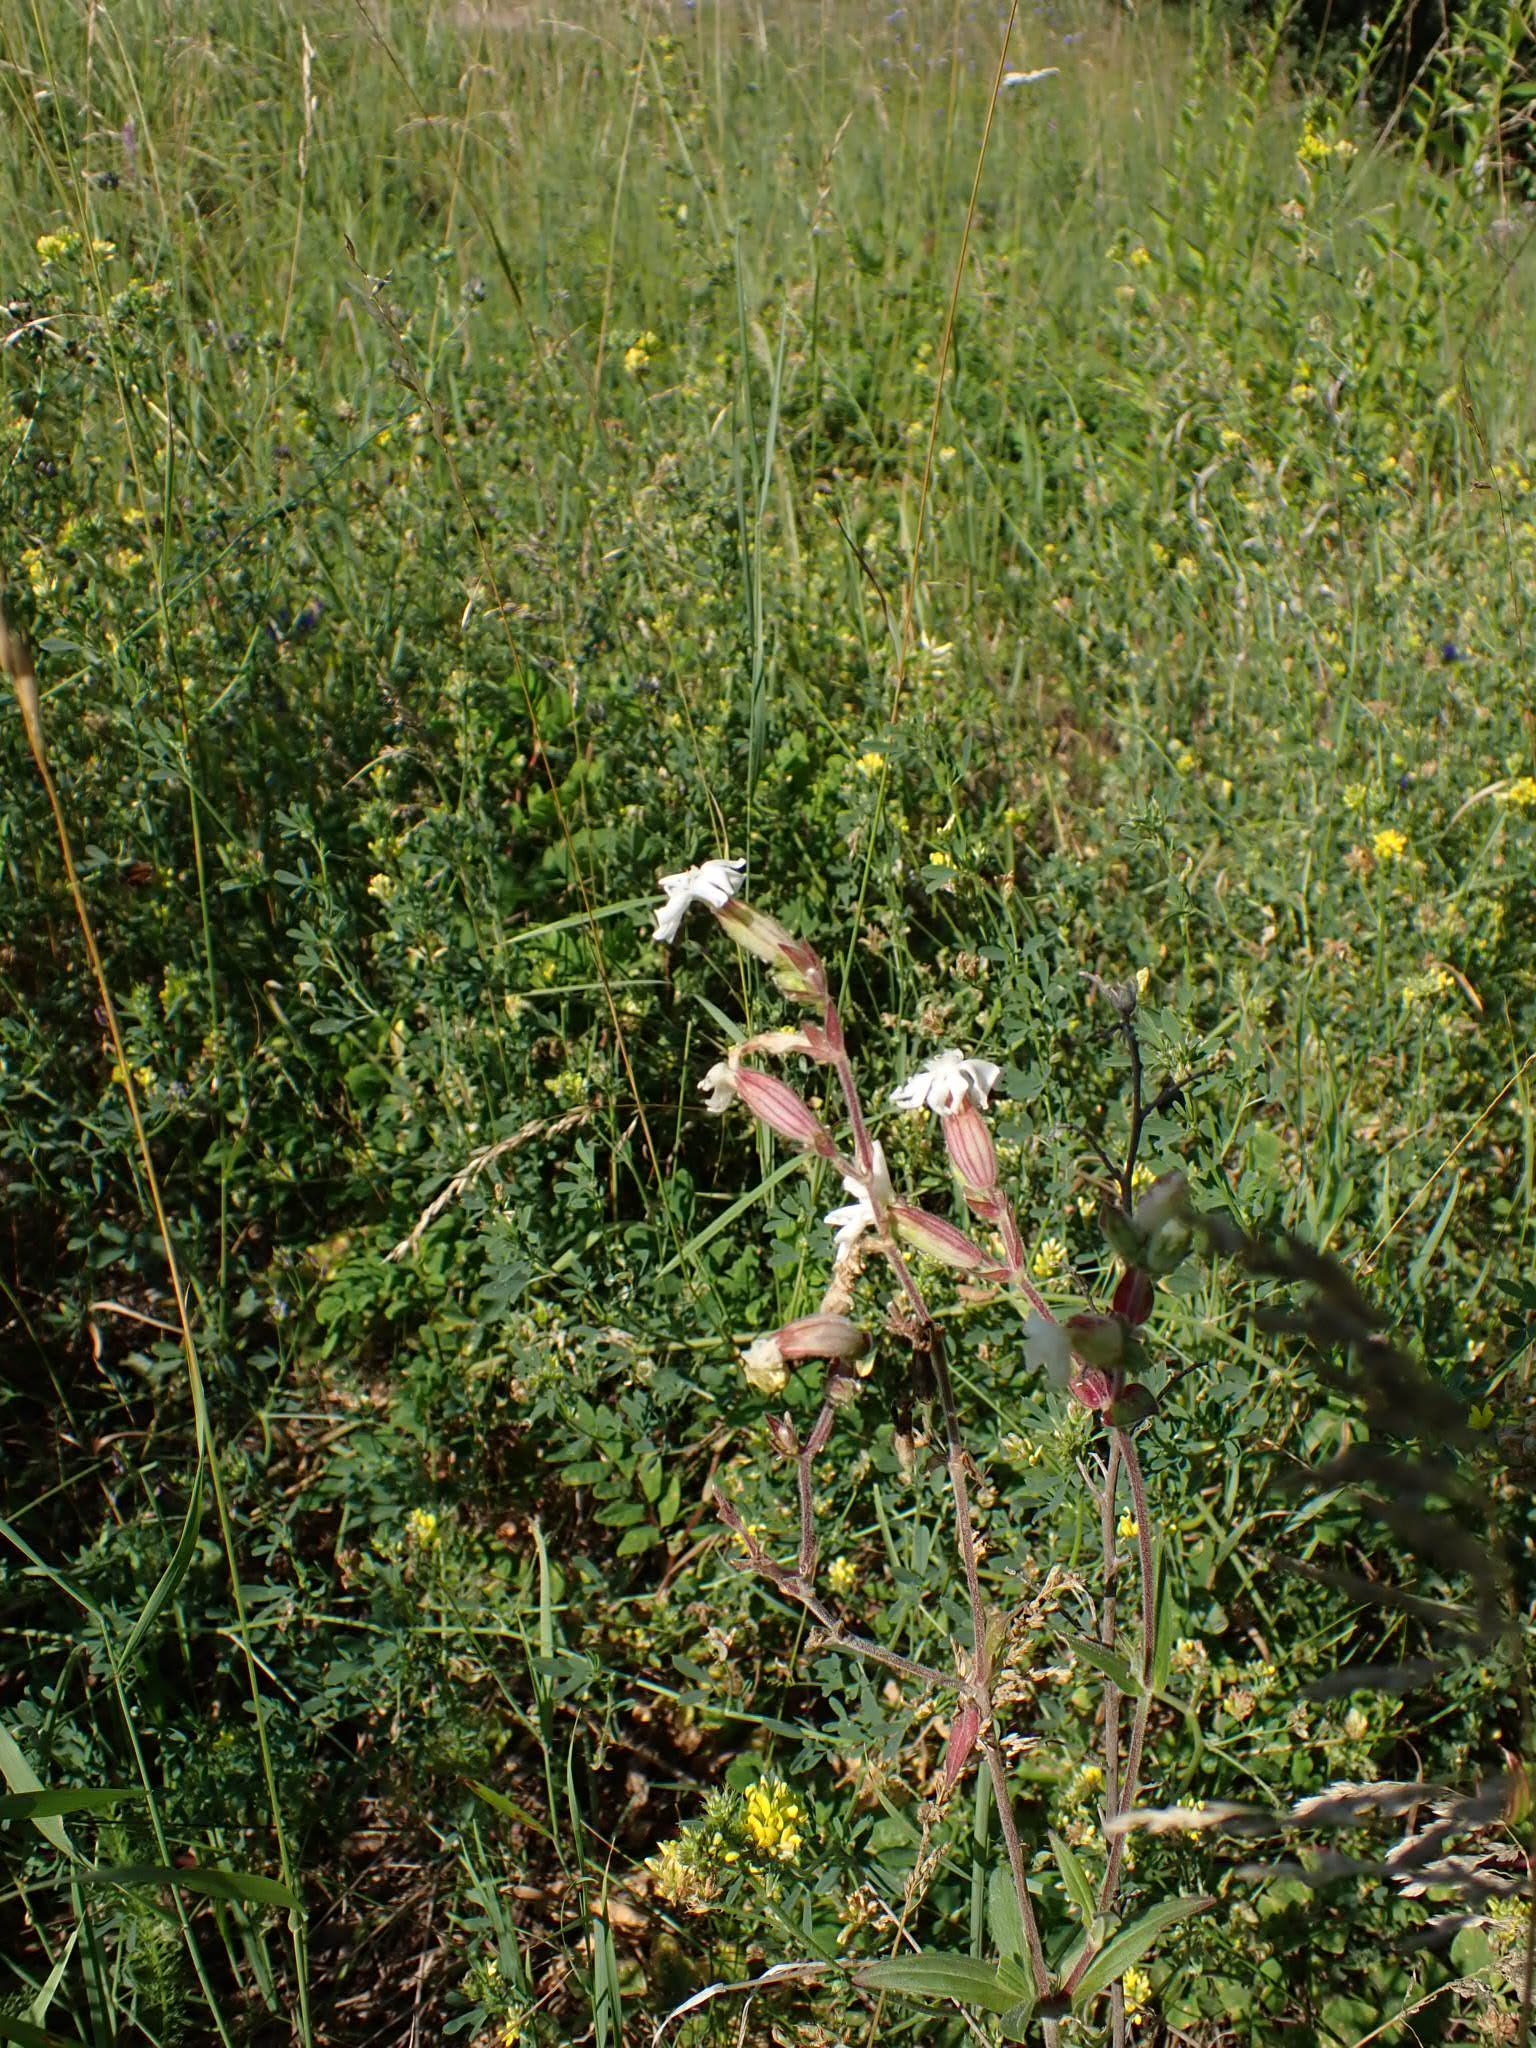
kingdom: Plantae
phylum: Tracheophyta
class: Magnoliopsida
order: Caryophyllales
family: Caryophyllaceae
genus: Silene
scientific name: Silene latifolia
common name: White campion
